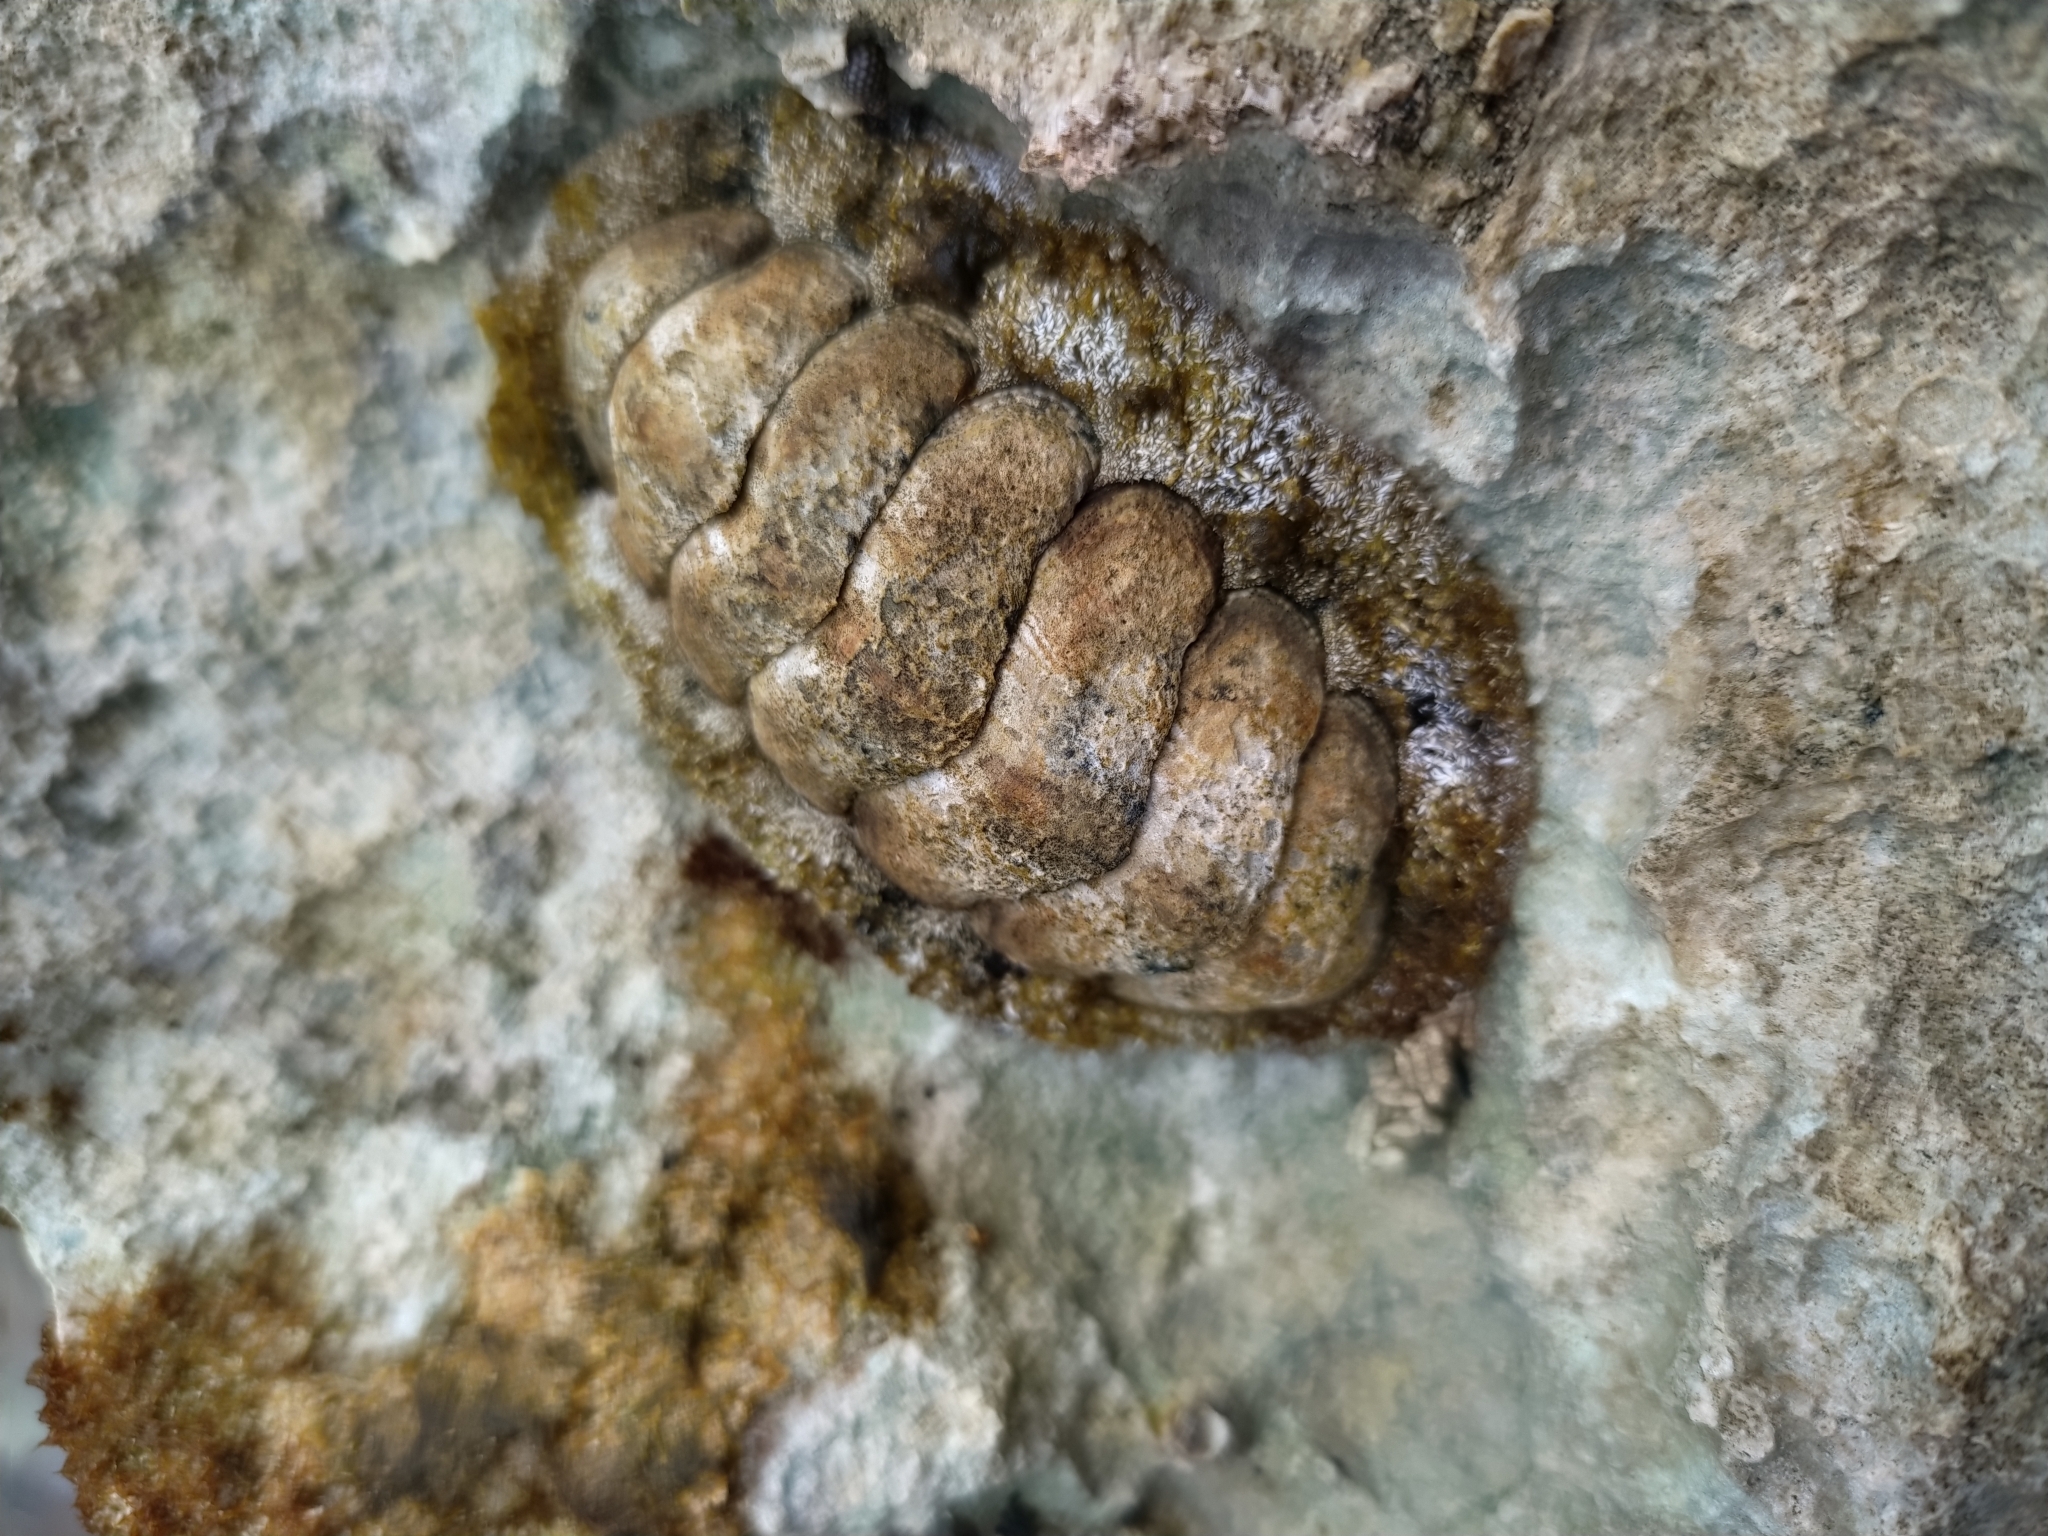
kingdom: Animalia
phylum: Mollusca
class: Polyplacophora
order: Chitonida
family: Chitonidae
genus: Acanthopleura
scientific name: Acanthopleura granulata
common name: West indian fuzzy chiton
